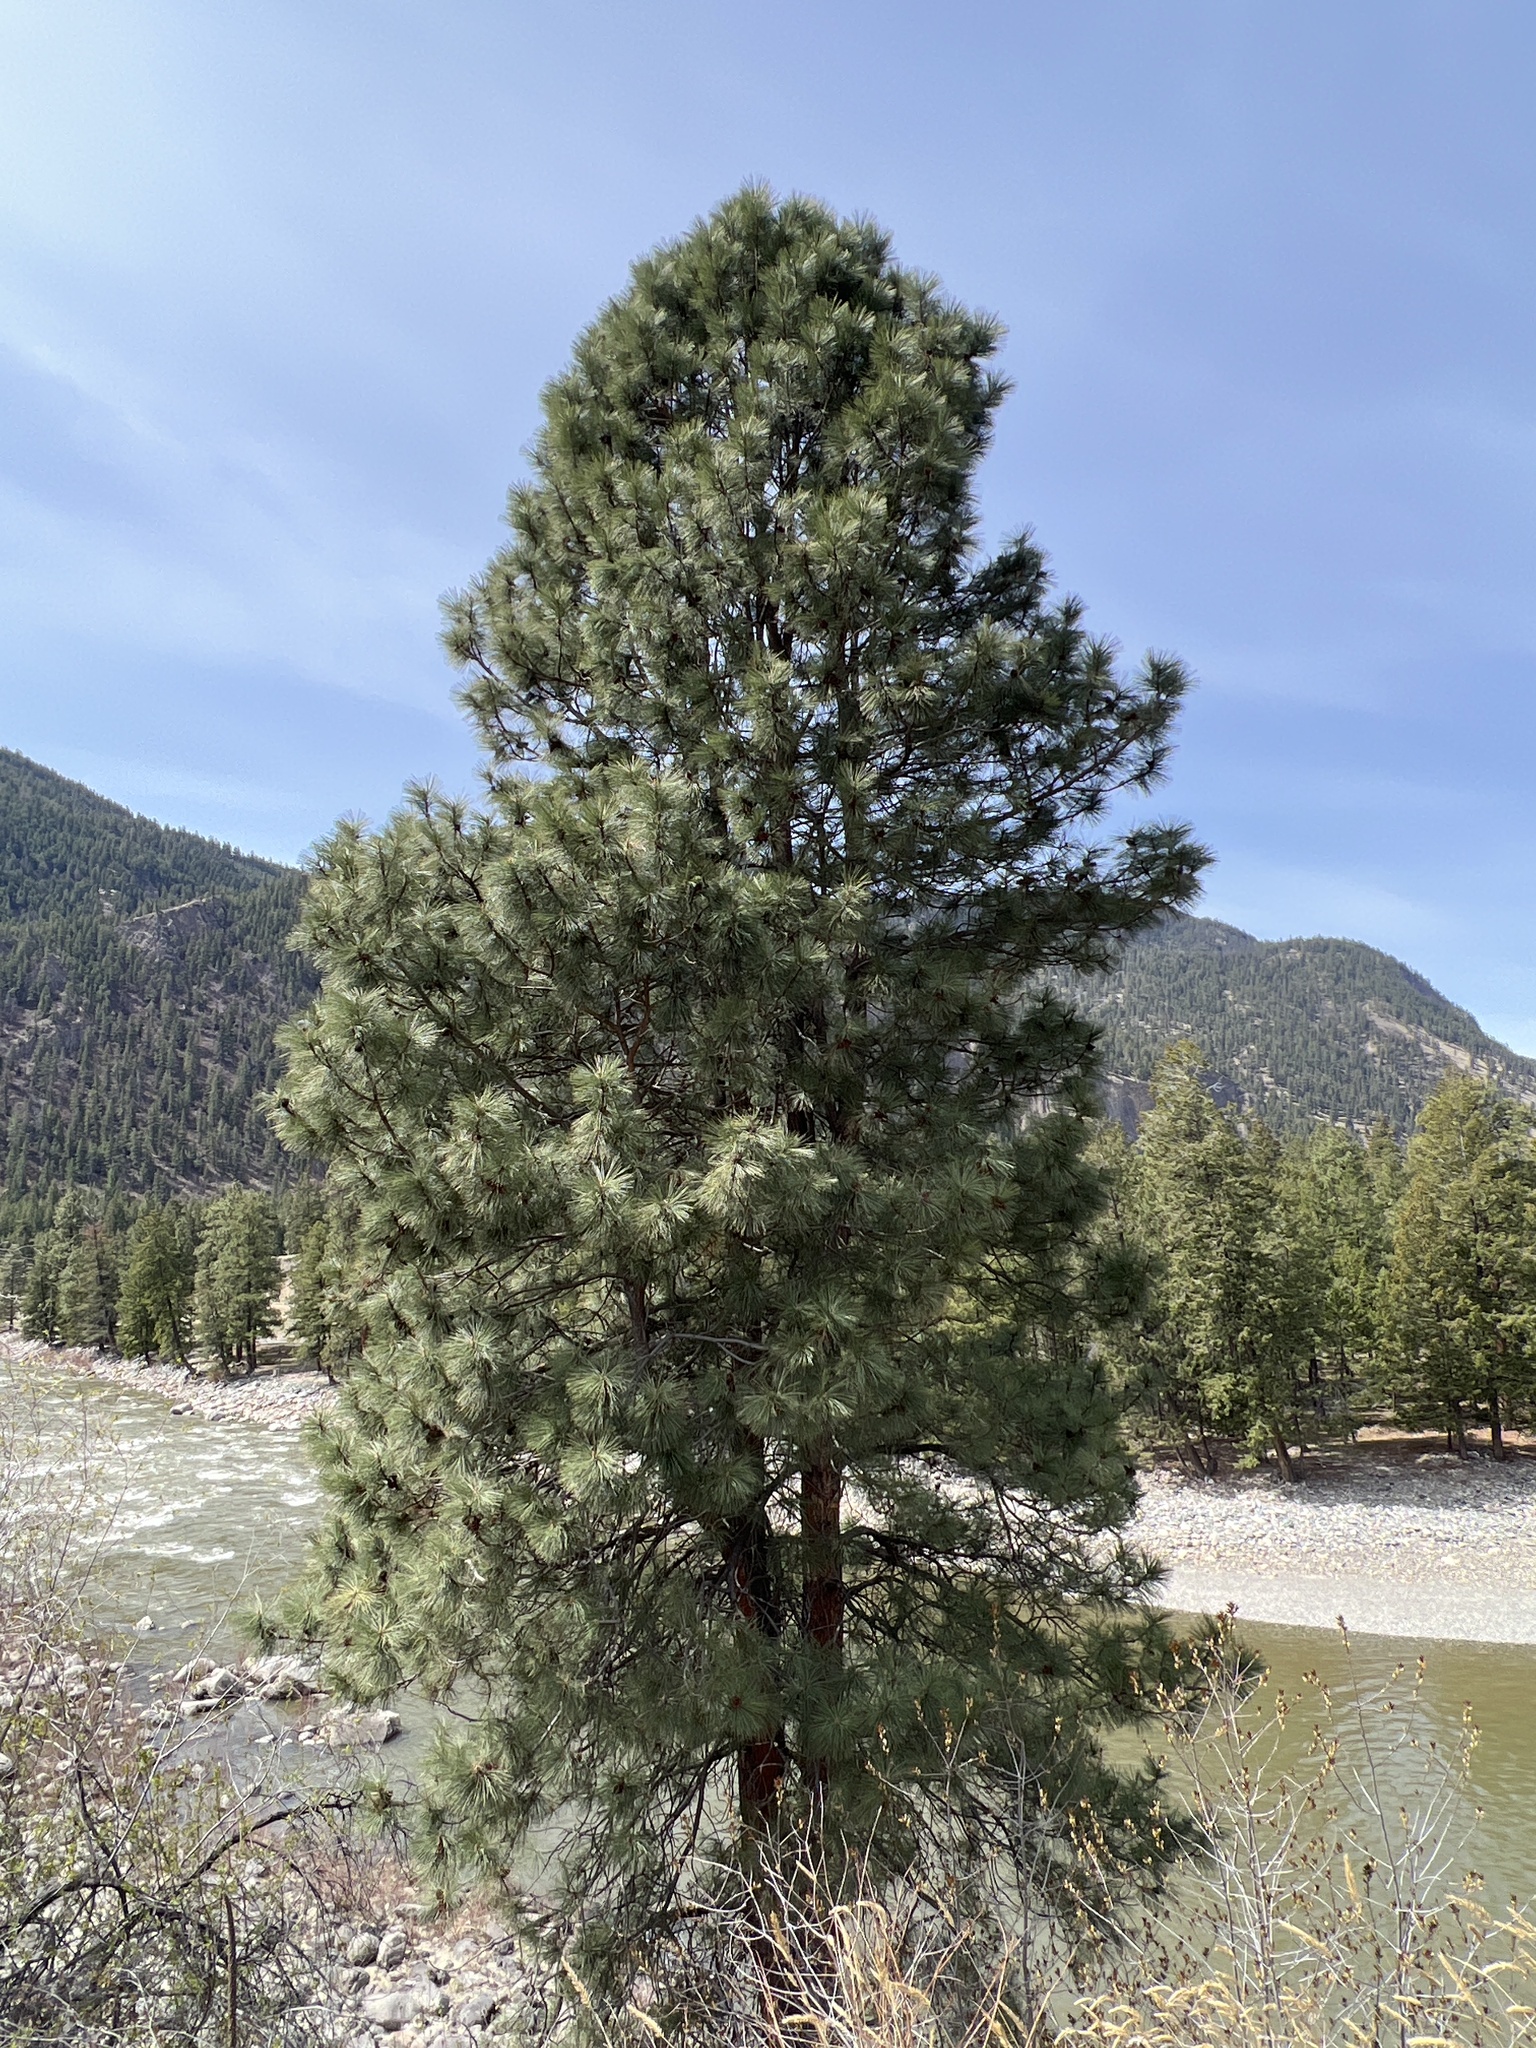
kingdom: Plantae
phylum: Tracheophyta
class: Pinopsida
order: Pinales
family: Pinaceae
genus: Pinus
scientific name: Pinus ponderosa
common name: Western yellow-pine
